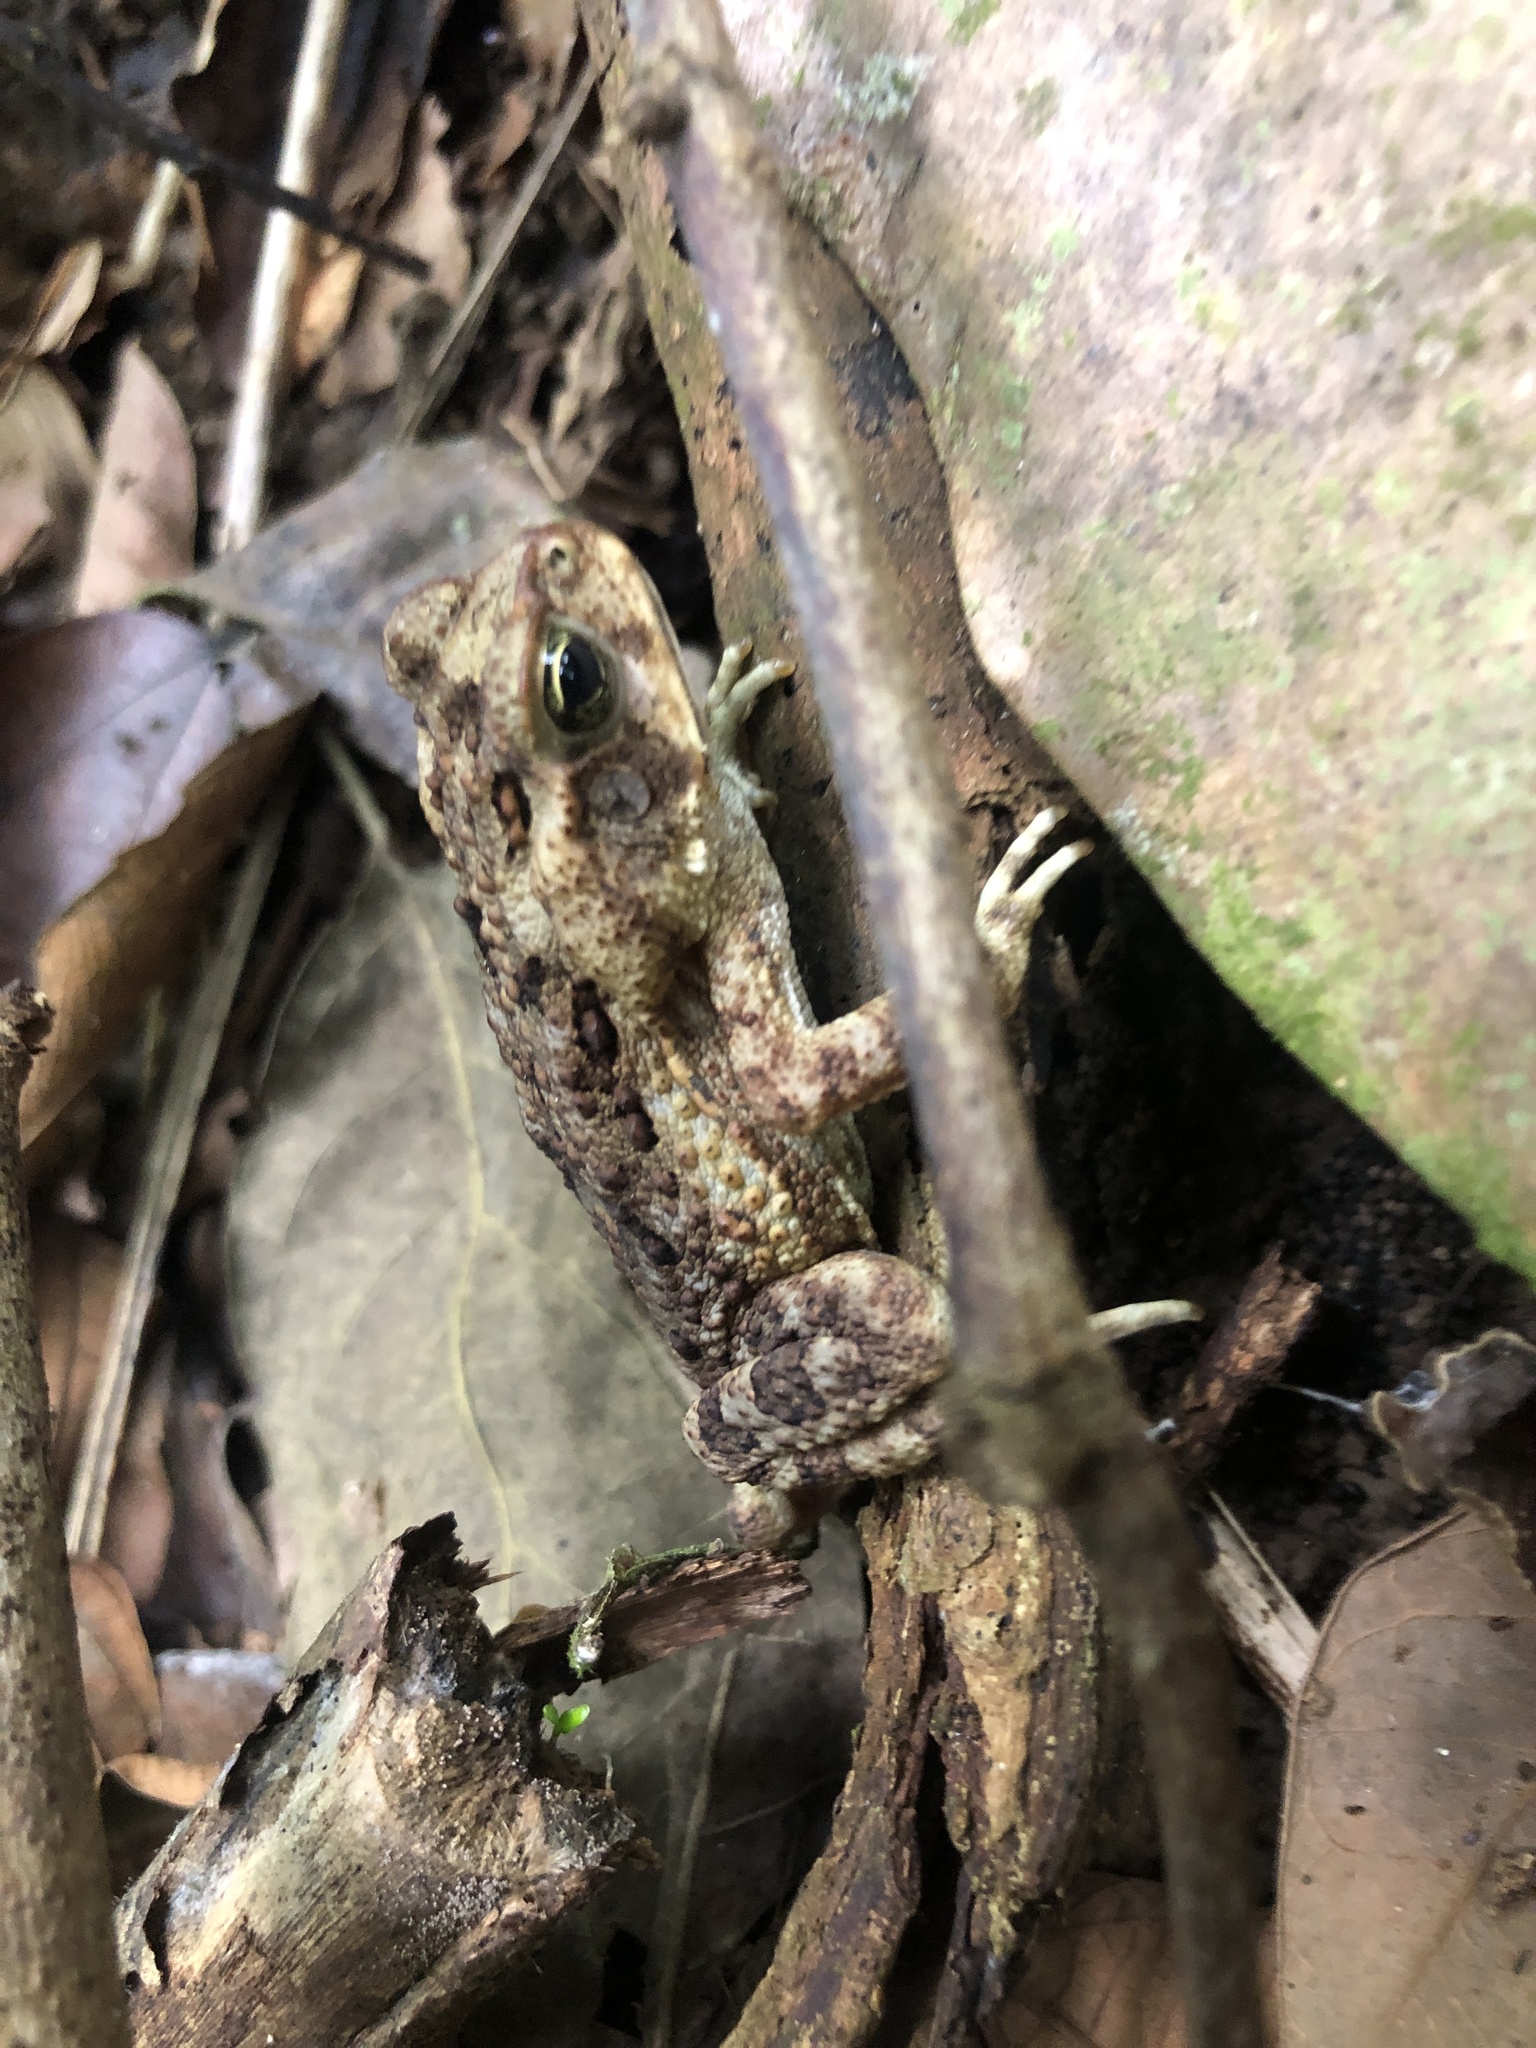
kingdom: Animalia
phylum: Chordata
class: Amphibia
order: Anura
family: Bufonidae
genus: Rhinella
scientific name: Rhinella horribilis
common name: Mesoamerican cane toad
